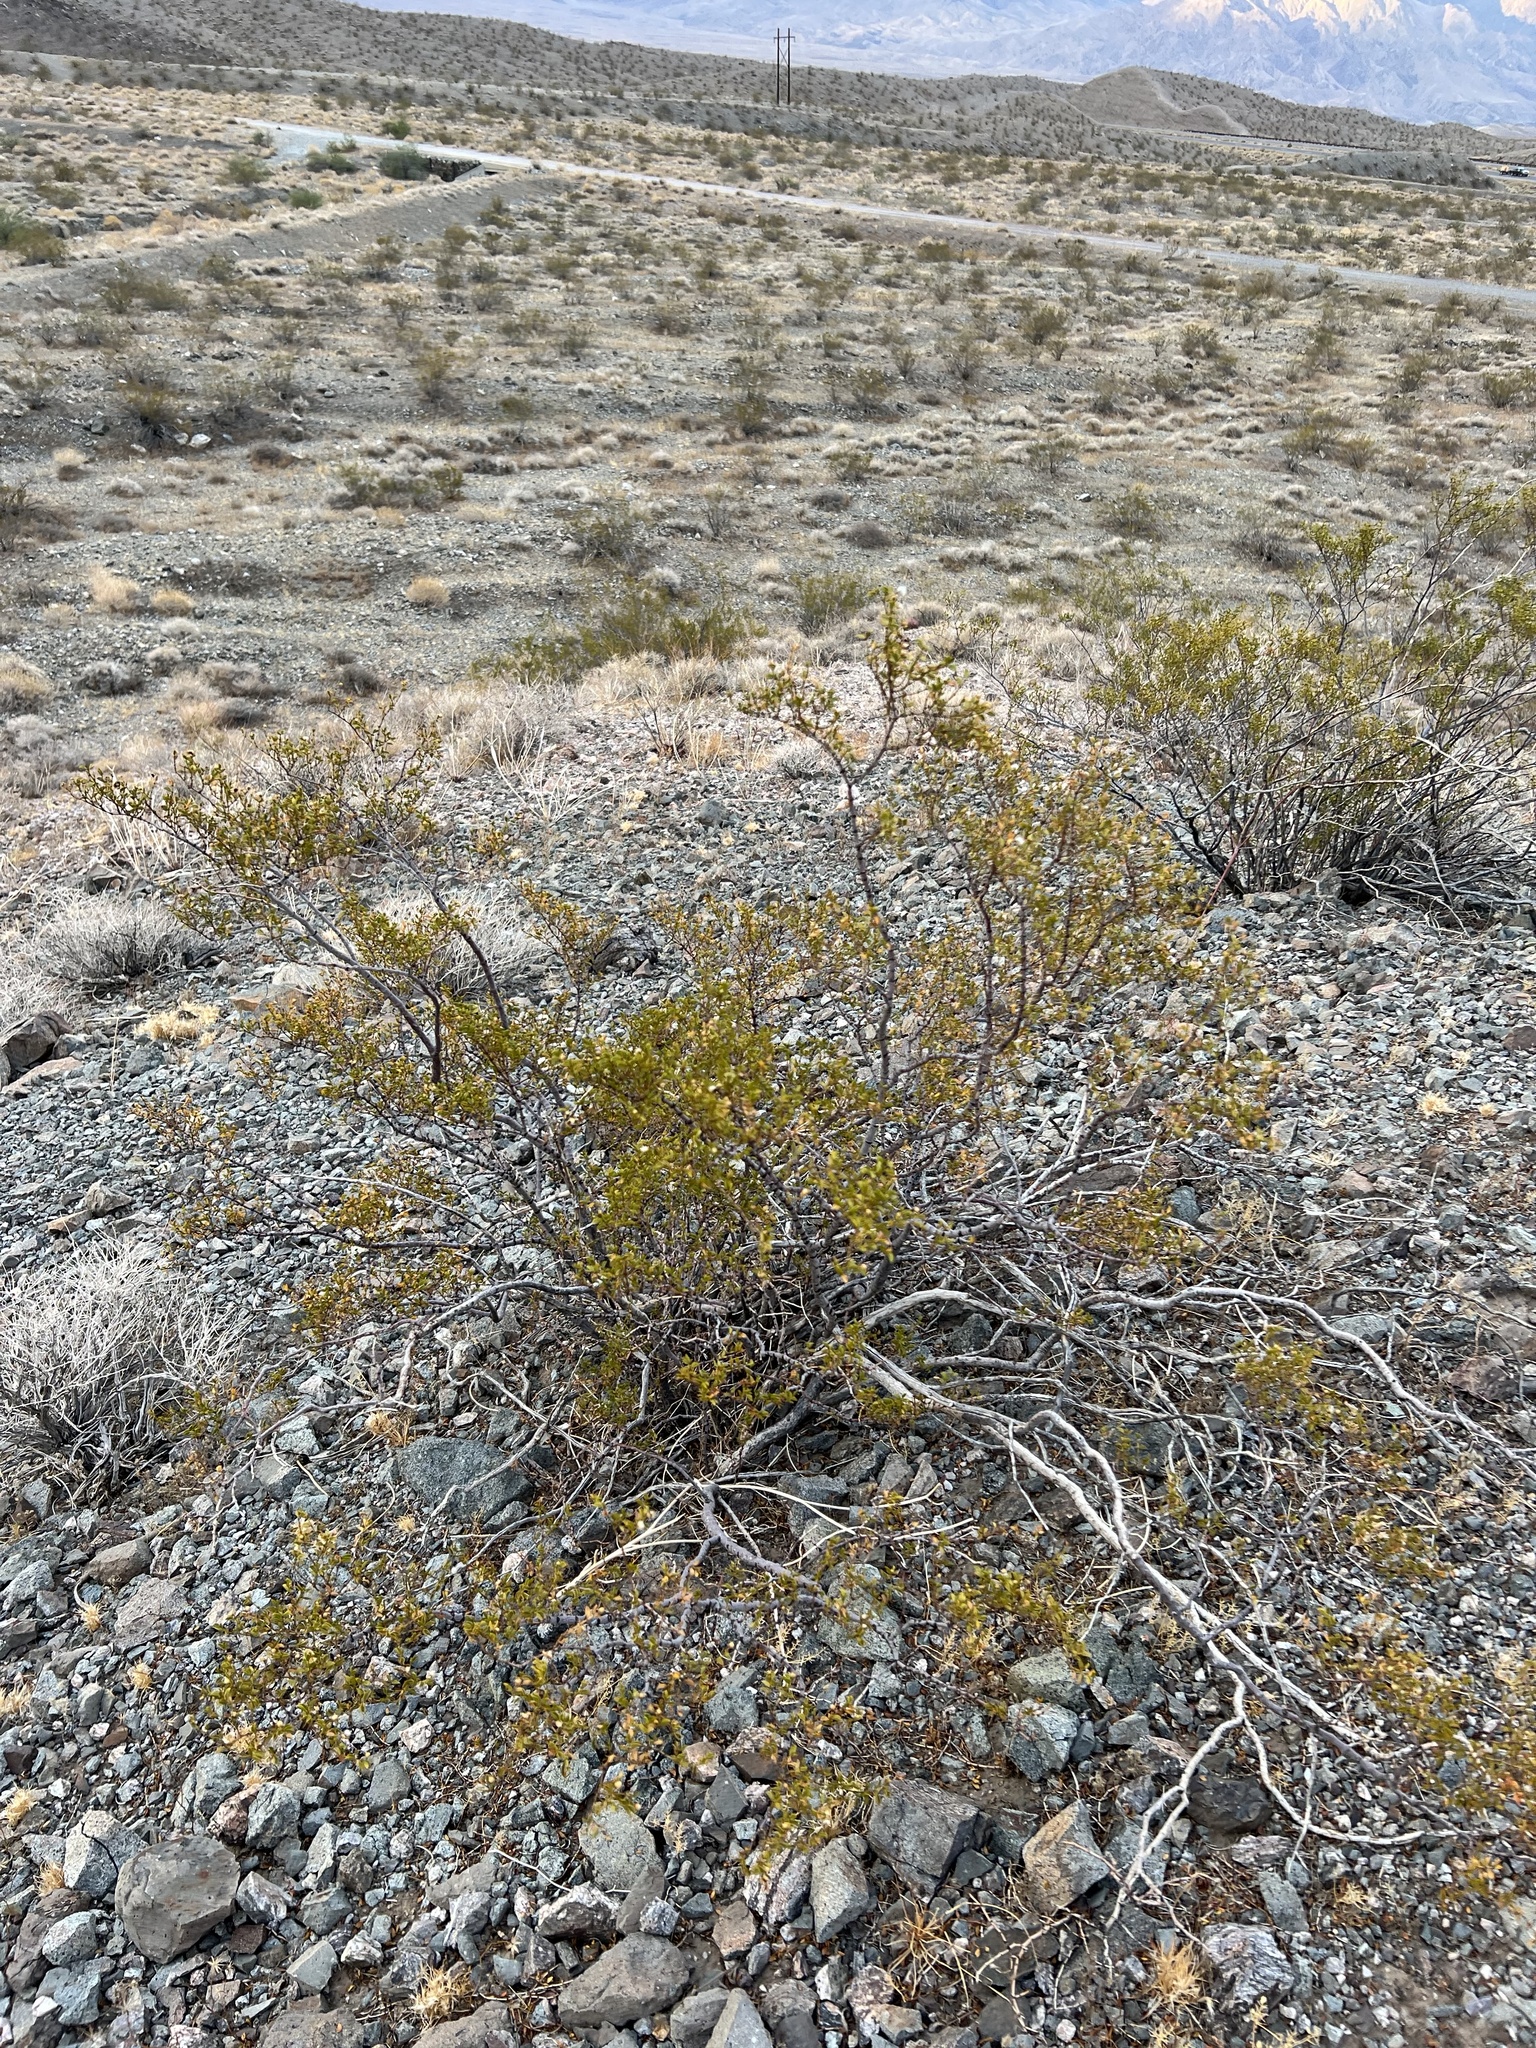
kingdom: Plantae
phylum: Tracheophyta
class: Magnoliopsida
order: Zygophyllales
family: Zygophyllaceae
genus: Larrea
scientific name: Larrea tridentata
